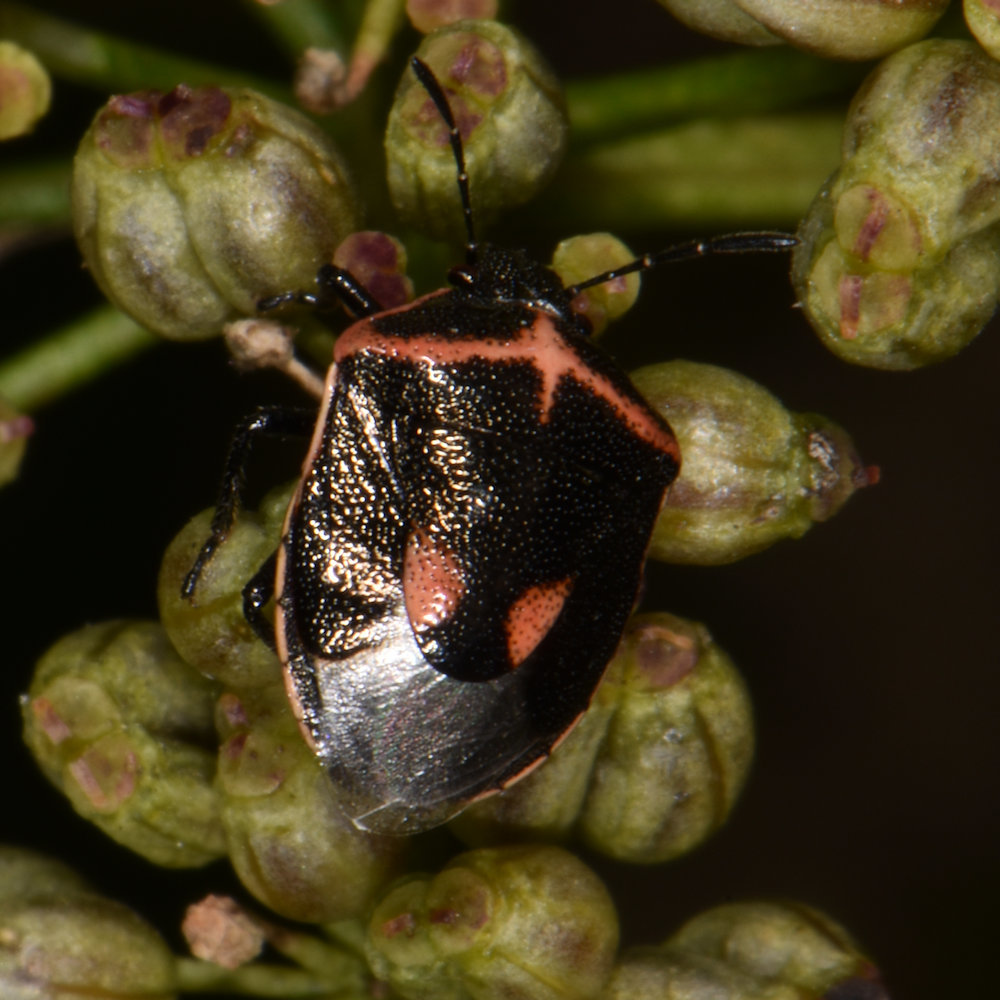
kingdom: Animalia
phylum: Arthropoda
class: Insecta
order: Hemiptera
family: Pentatomidae
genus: Cosmopepla
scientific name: Cosmopepla lintneriana
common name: Twice-stabbed stink bug
